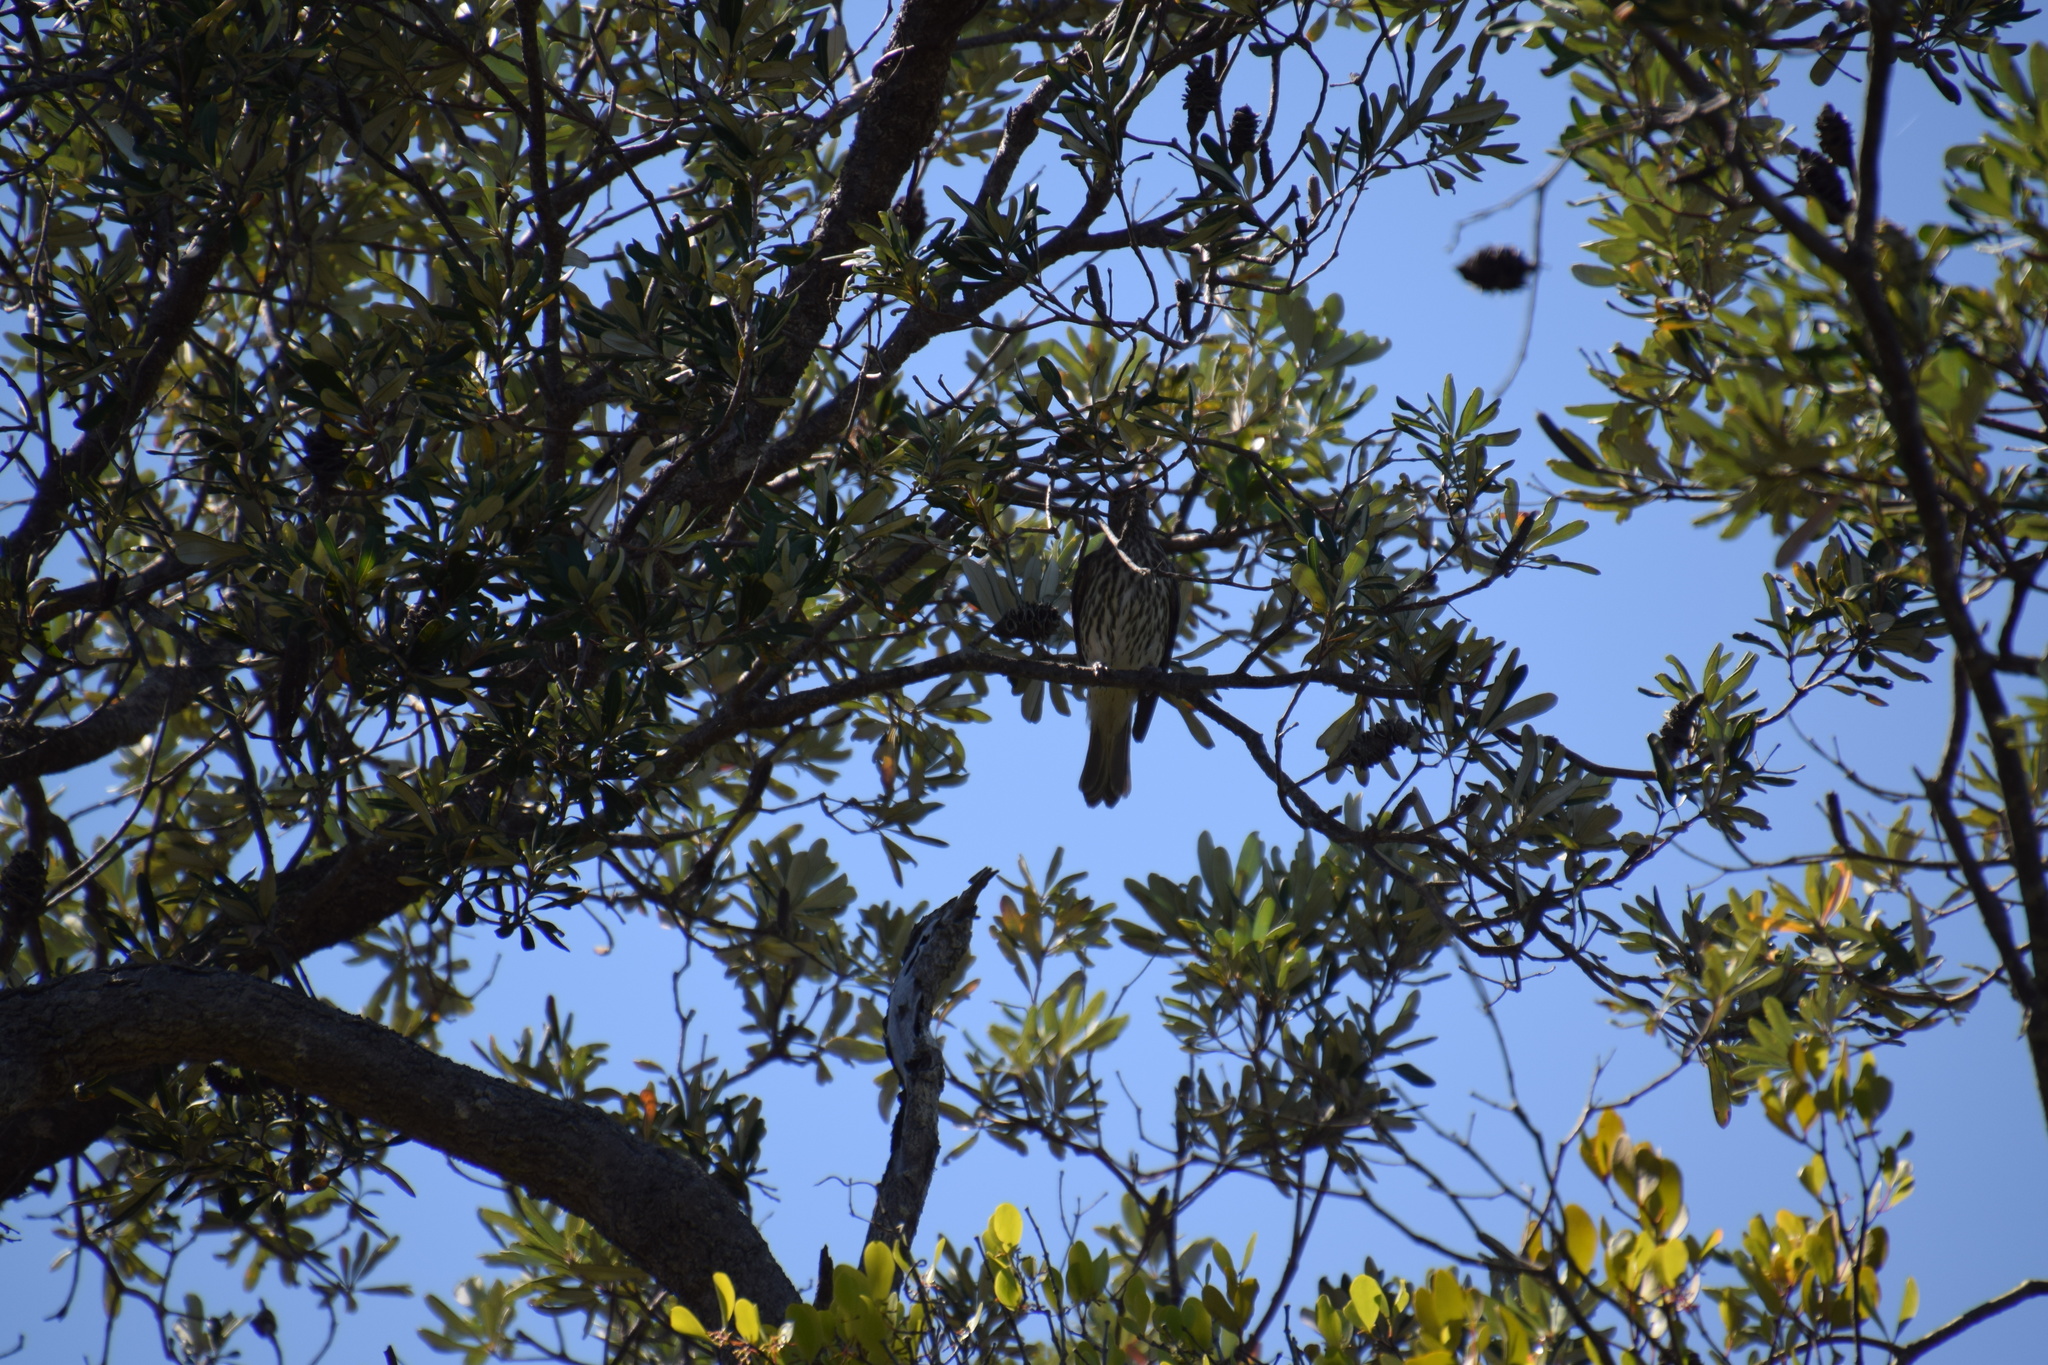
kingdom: Animalia
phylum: Chordata
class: Aves
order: Passeriformes
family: Oriolidae
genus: Sphecotheres
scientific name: Sphecotheres vieilloti
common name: Australasian figbird
